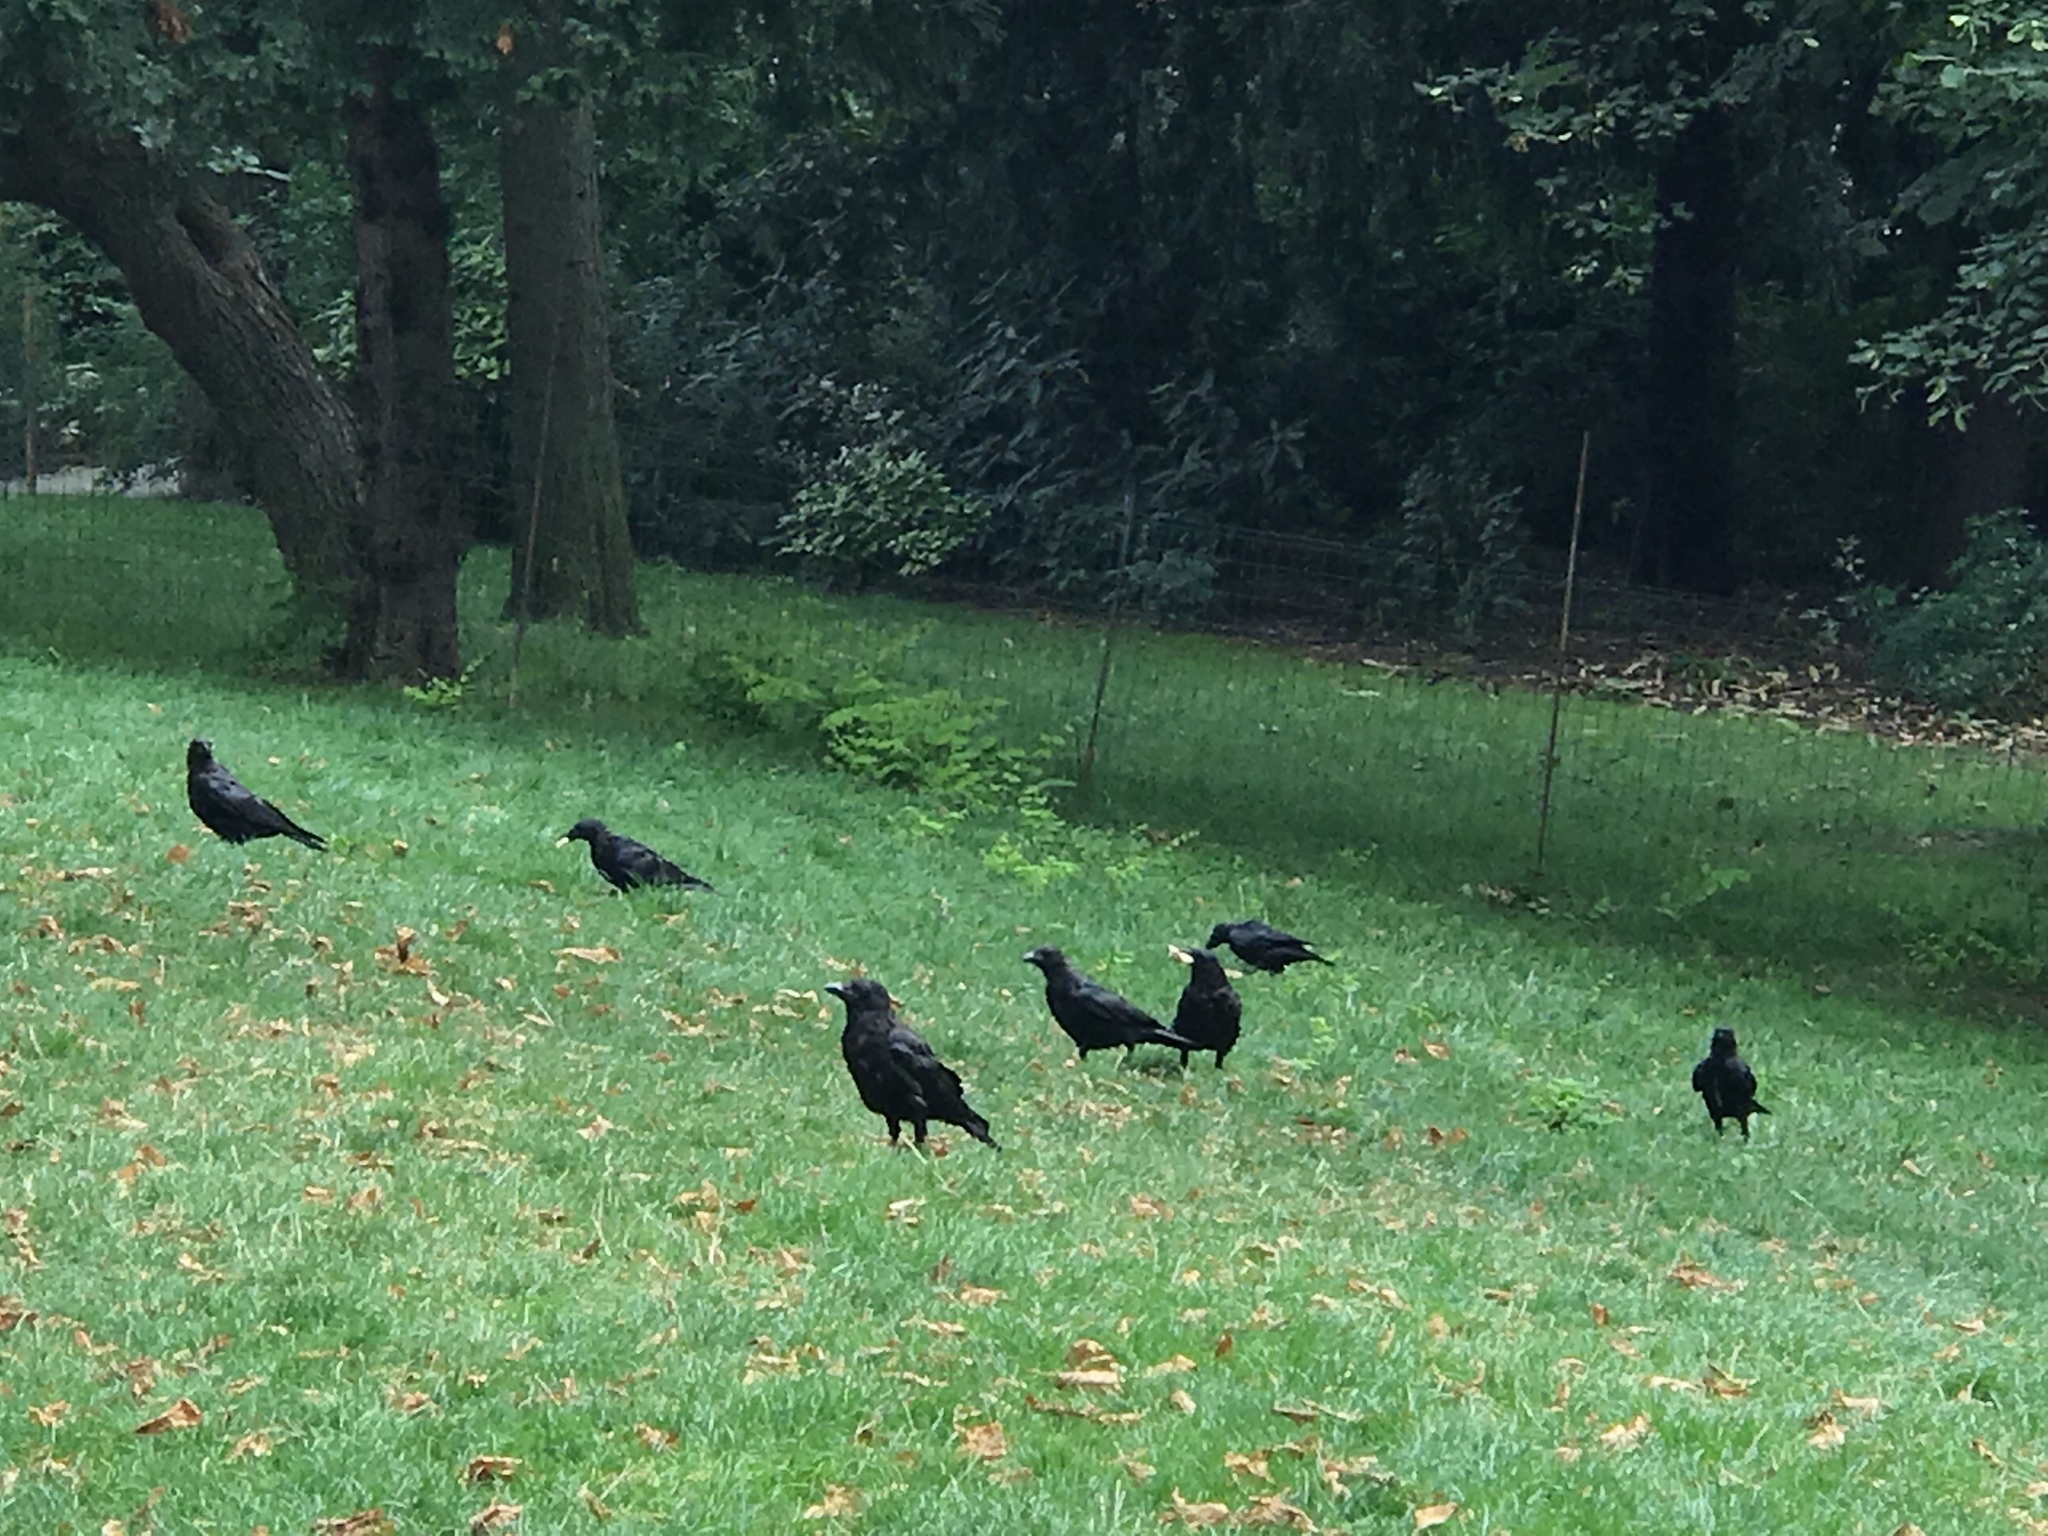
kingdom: Animalia
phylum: Chordata
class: Aves
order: Passeriformes
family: Corvidae
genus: Corvus
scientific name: Corvus corone
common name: Carrion crow
